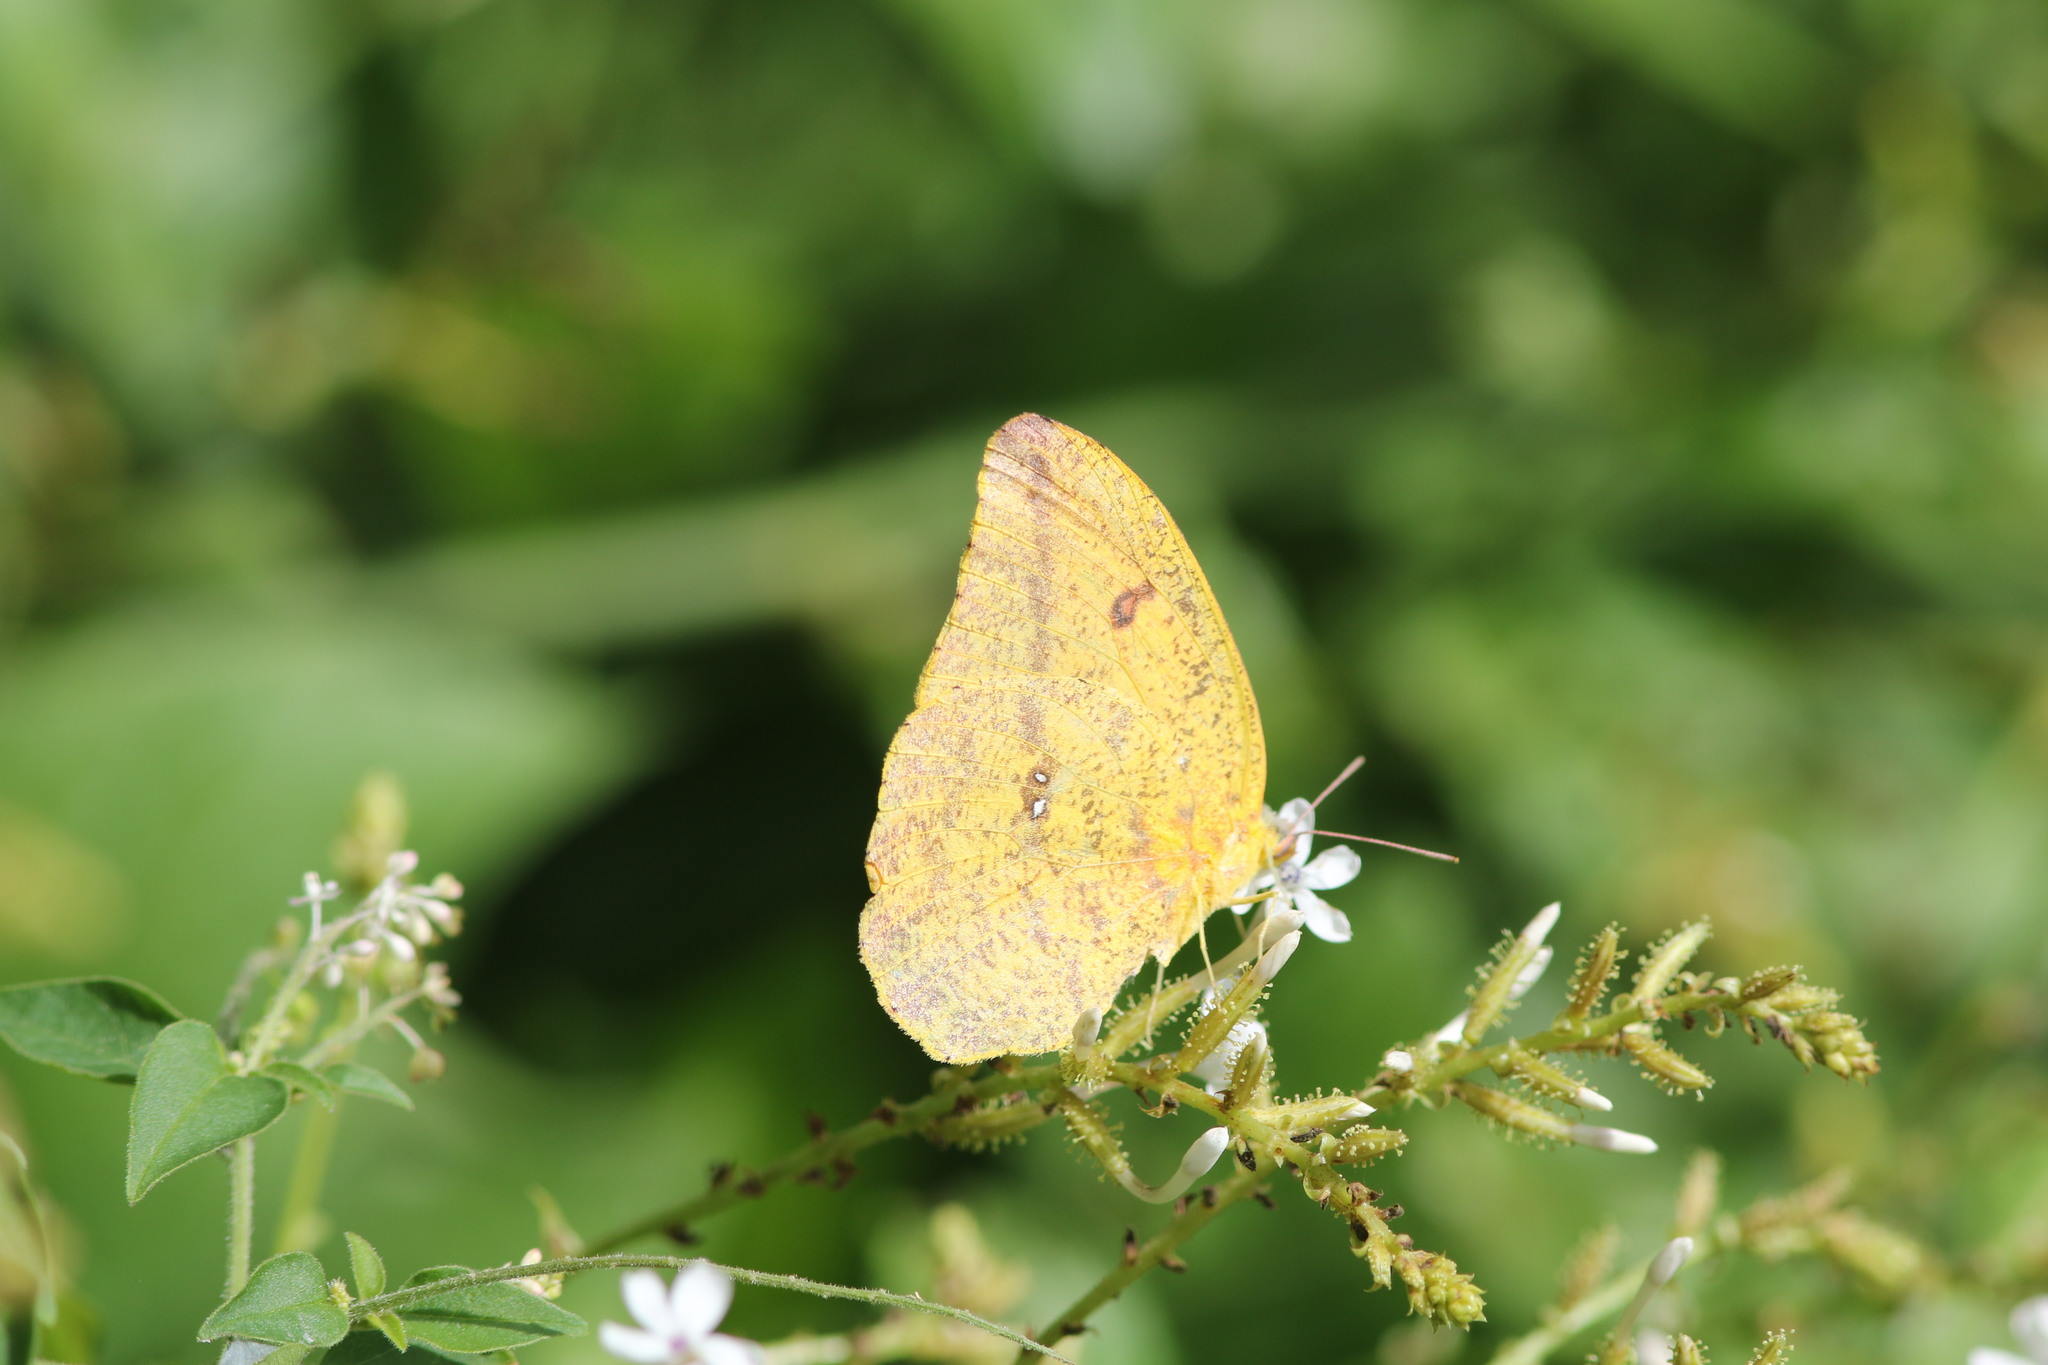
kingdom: Animalia
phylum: Arthropoda
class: Insecta
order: Lepidoptera
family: Pieridae
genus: Phoebis
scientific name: Phoebis agarithe
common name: Large orange sulphur
